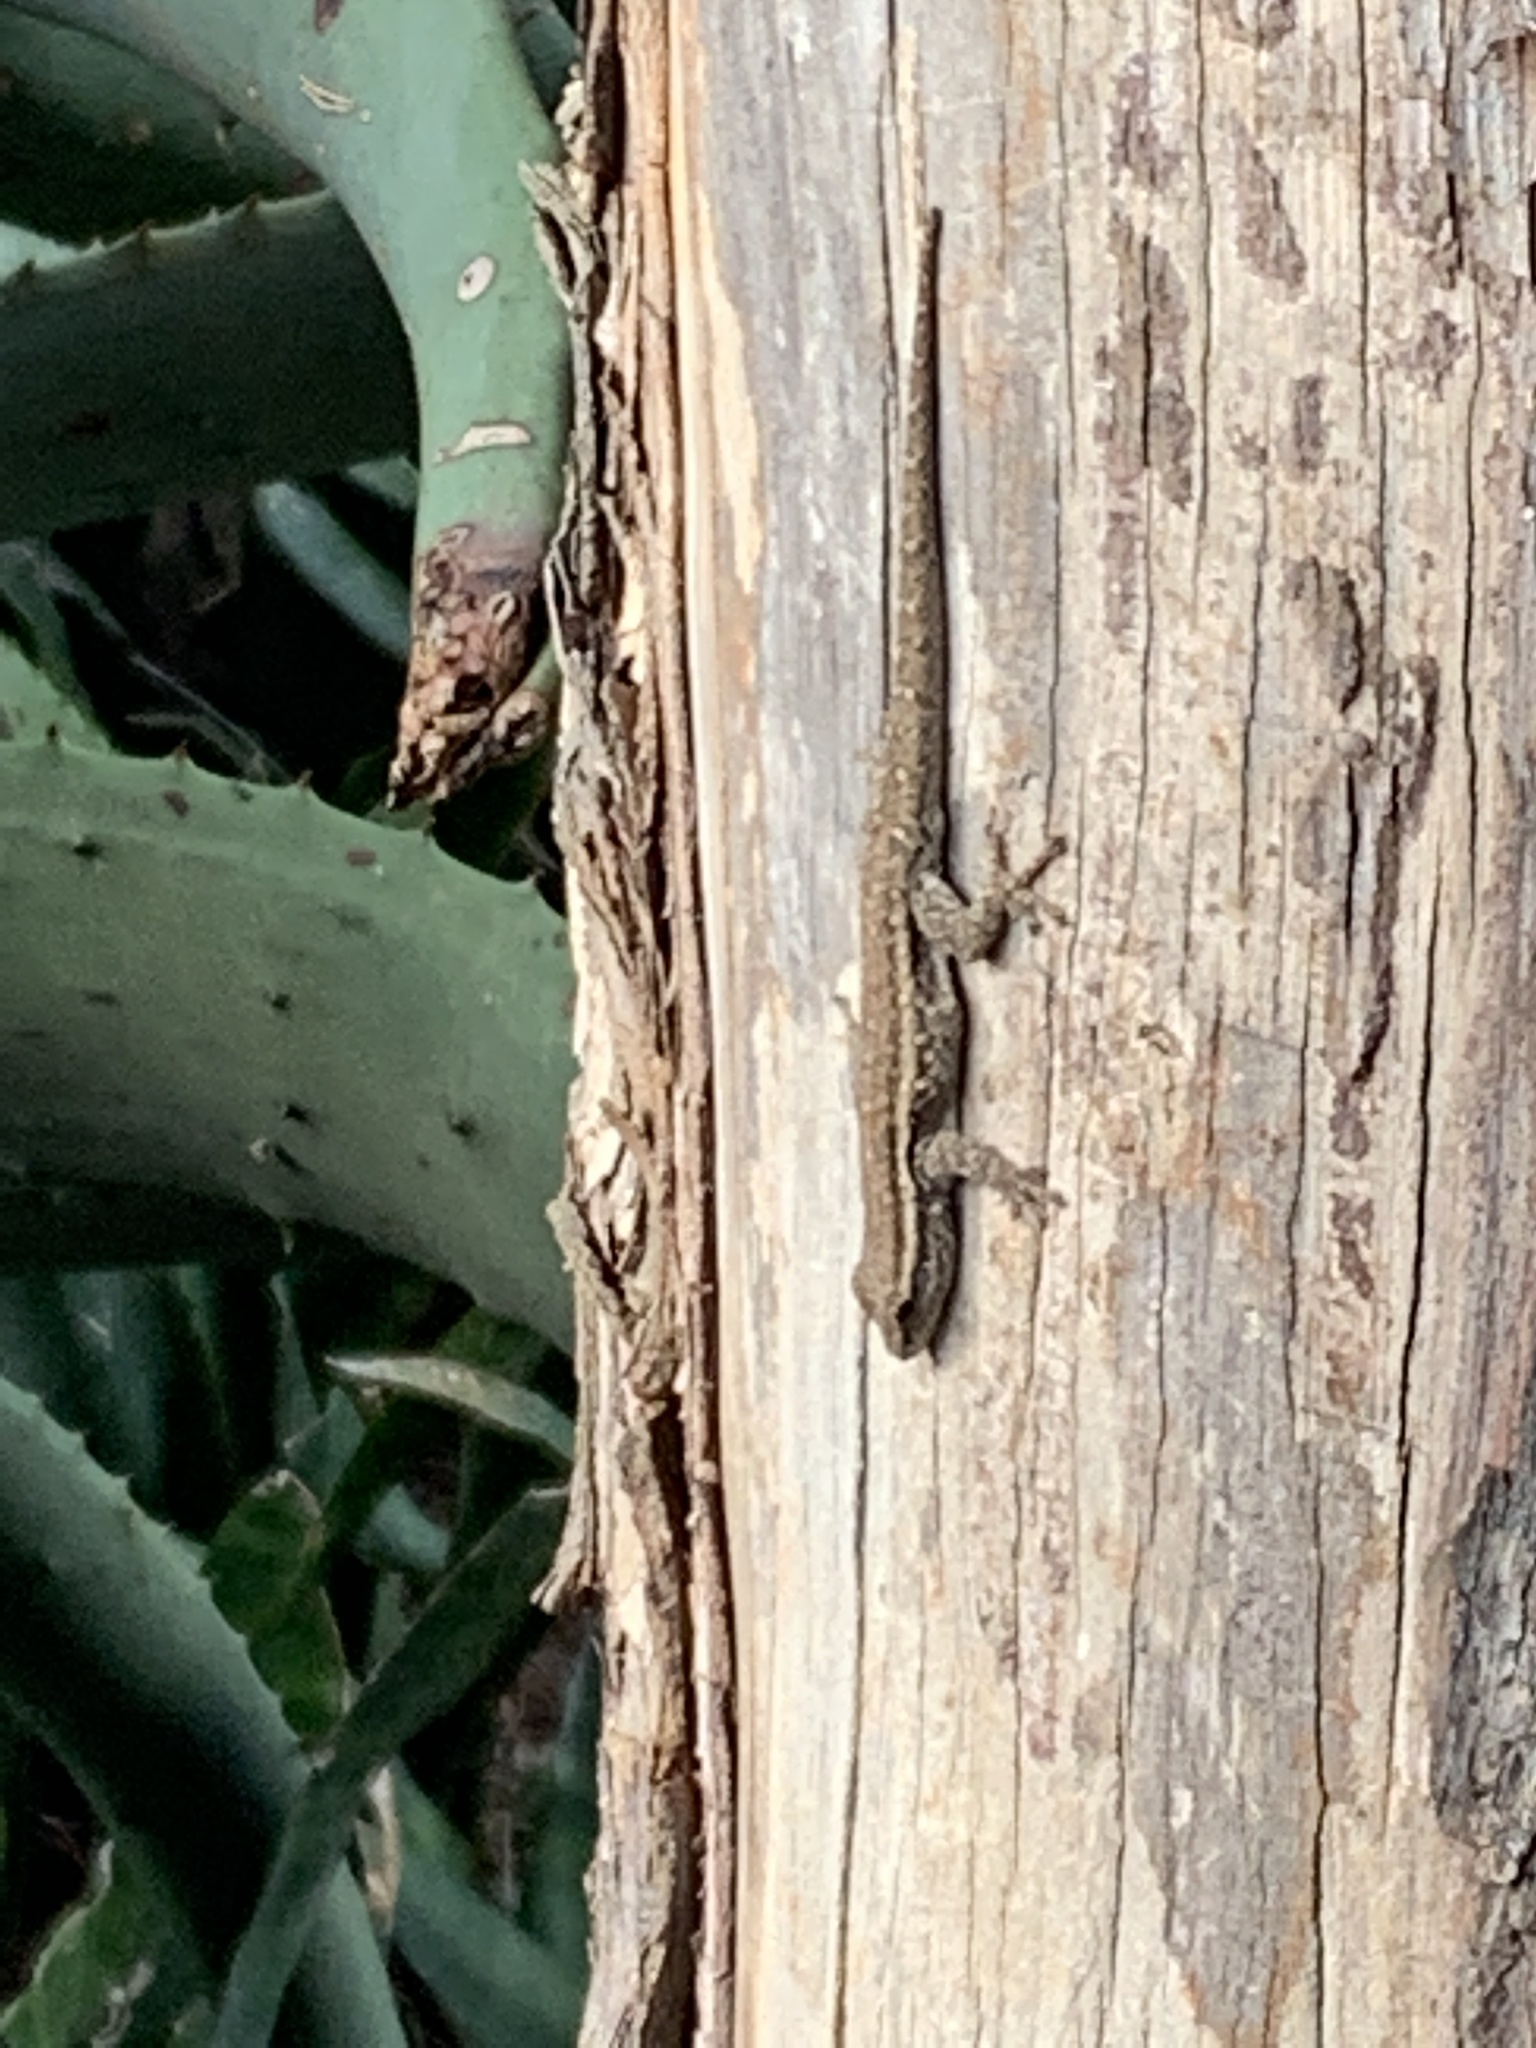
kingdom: Animalia
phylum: Chordata
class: Squamata
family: Gekkonidae
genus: Lygodactylus
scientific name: Lygodactylus capensis
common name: Cape dwarf gecko
